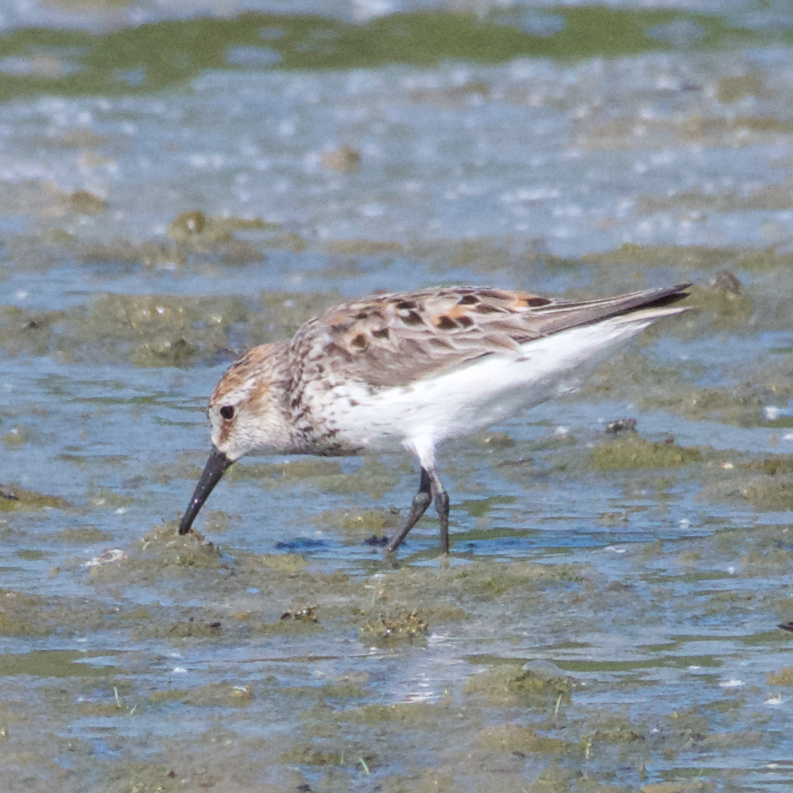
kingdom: Animalia
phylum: Chordata
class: Aves
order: Charadriiformes
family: Scolopacidae
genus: Calidris
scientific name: Calidris mauri
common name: Western sandpiper
